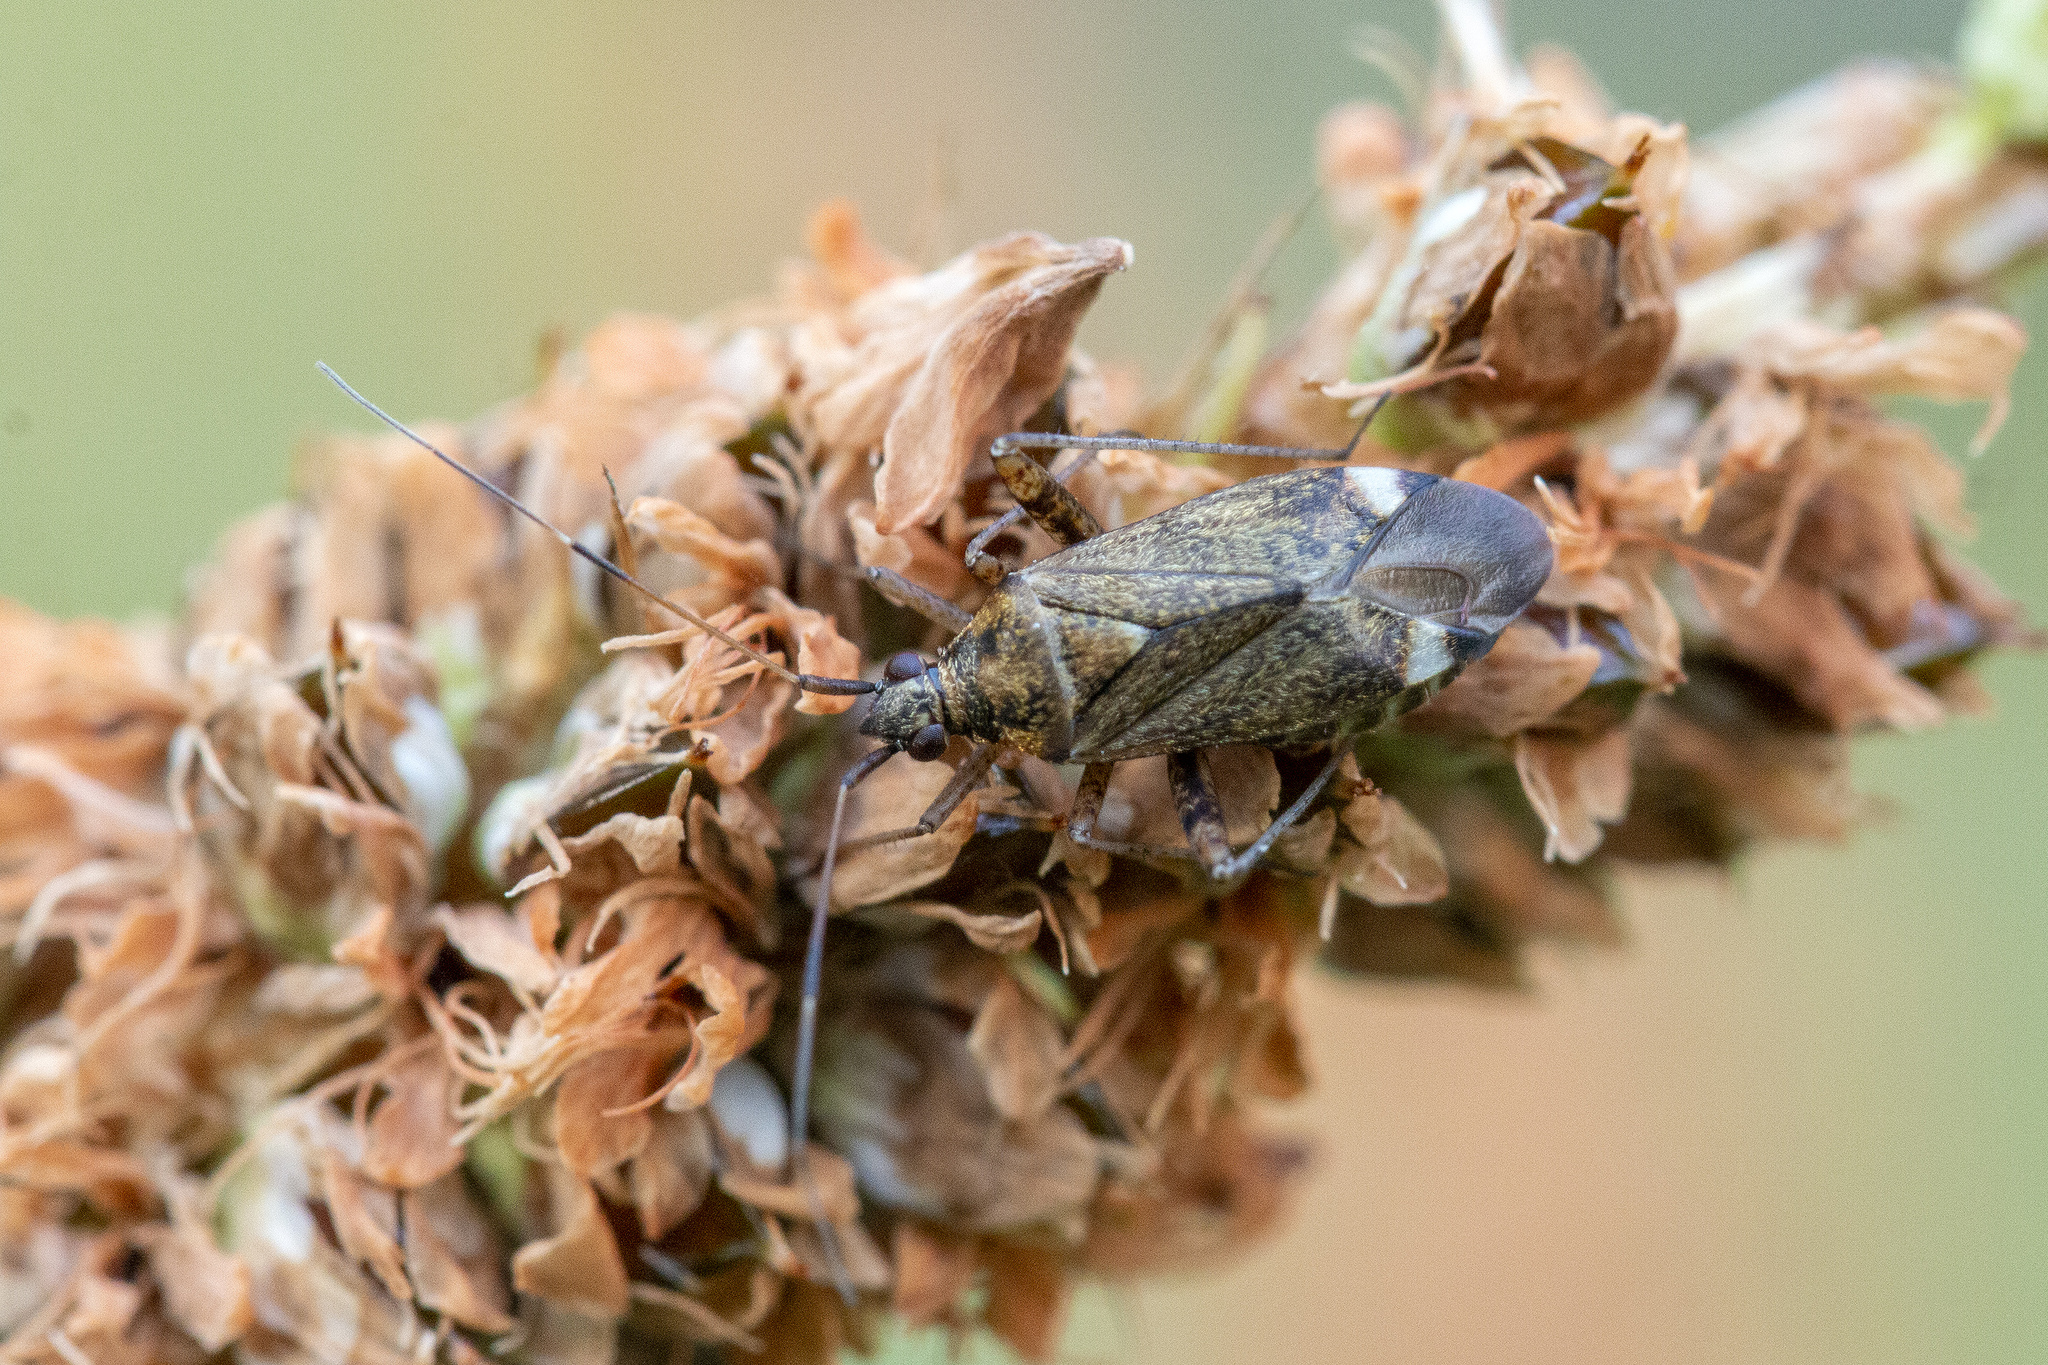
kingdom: Animalia
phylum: Arthropoda
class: Insecta
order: Hemiptera
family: Miridae
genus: Closterotomus
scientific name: Closterotomus fulvomaculatus
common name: Spotted plant bug
